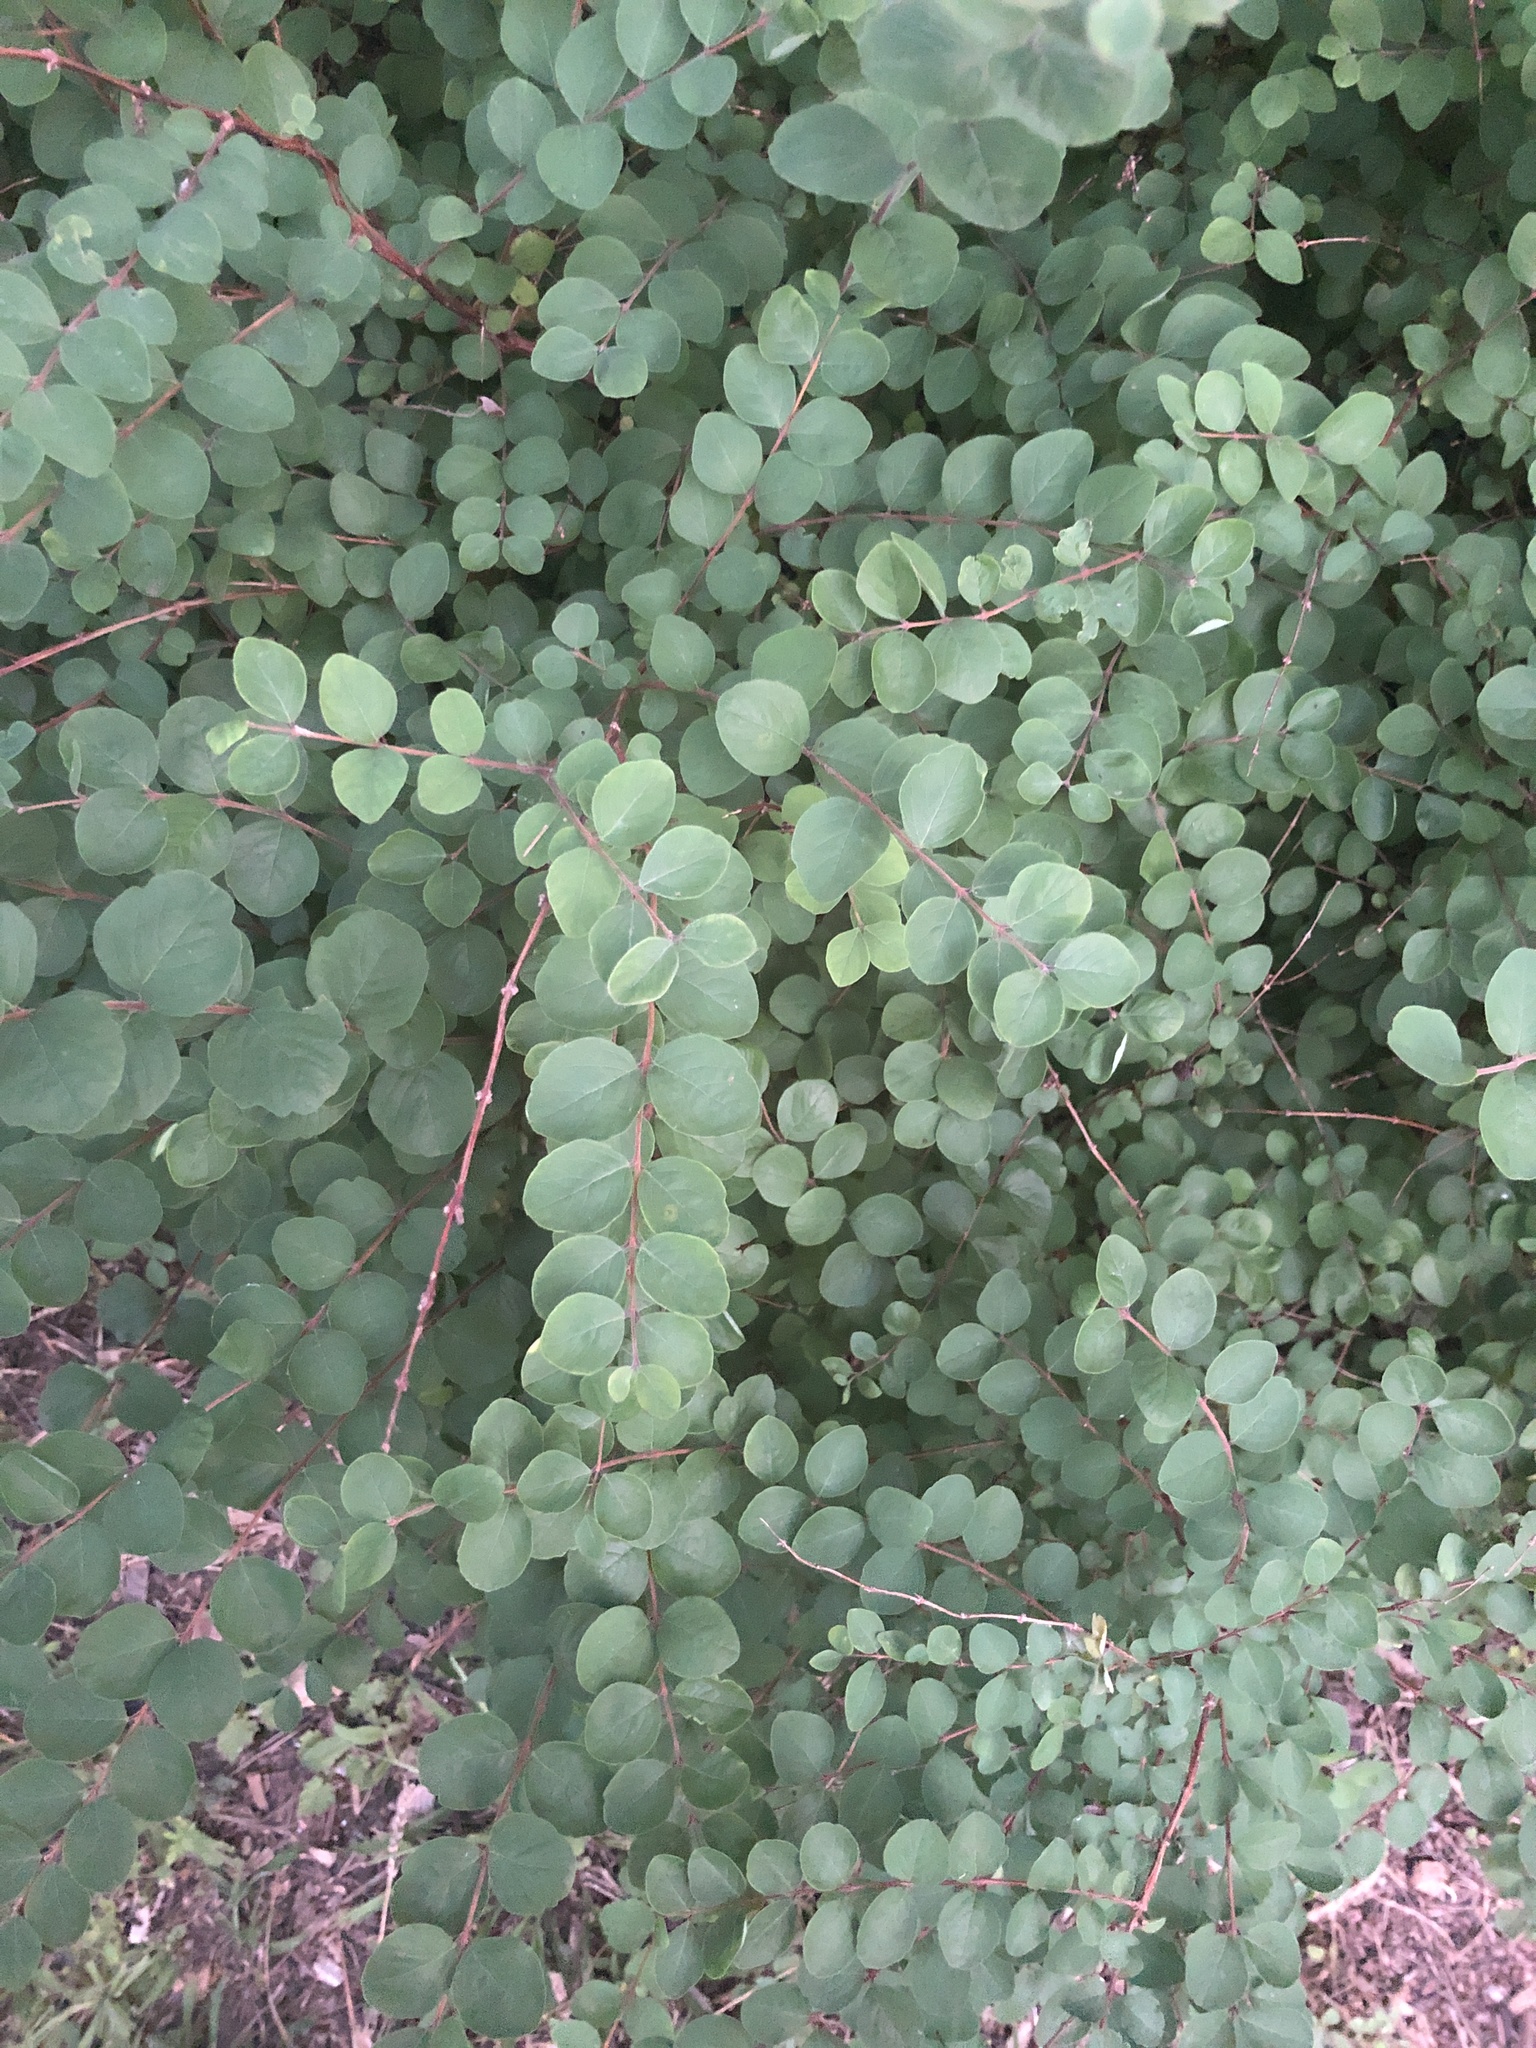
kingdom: Plantae
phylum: Tracheophyta
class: Magnoliopsida
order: Dipsacales
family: Caprifoliaceae
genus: Symphoricarpos
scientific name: Symphoricarpos orbiculatus
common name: Coralberry
